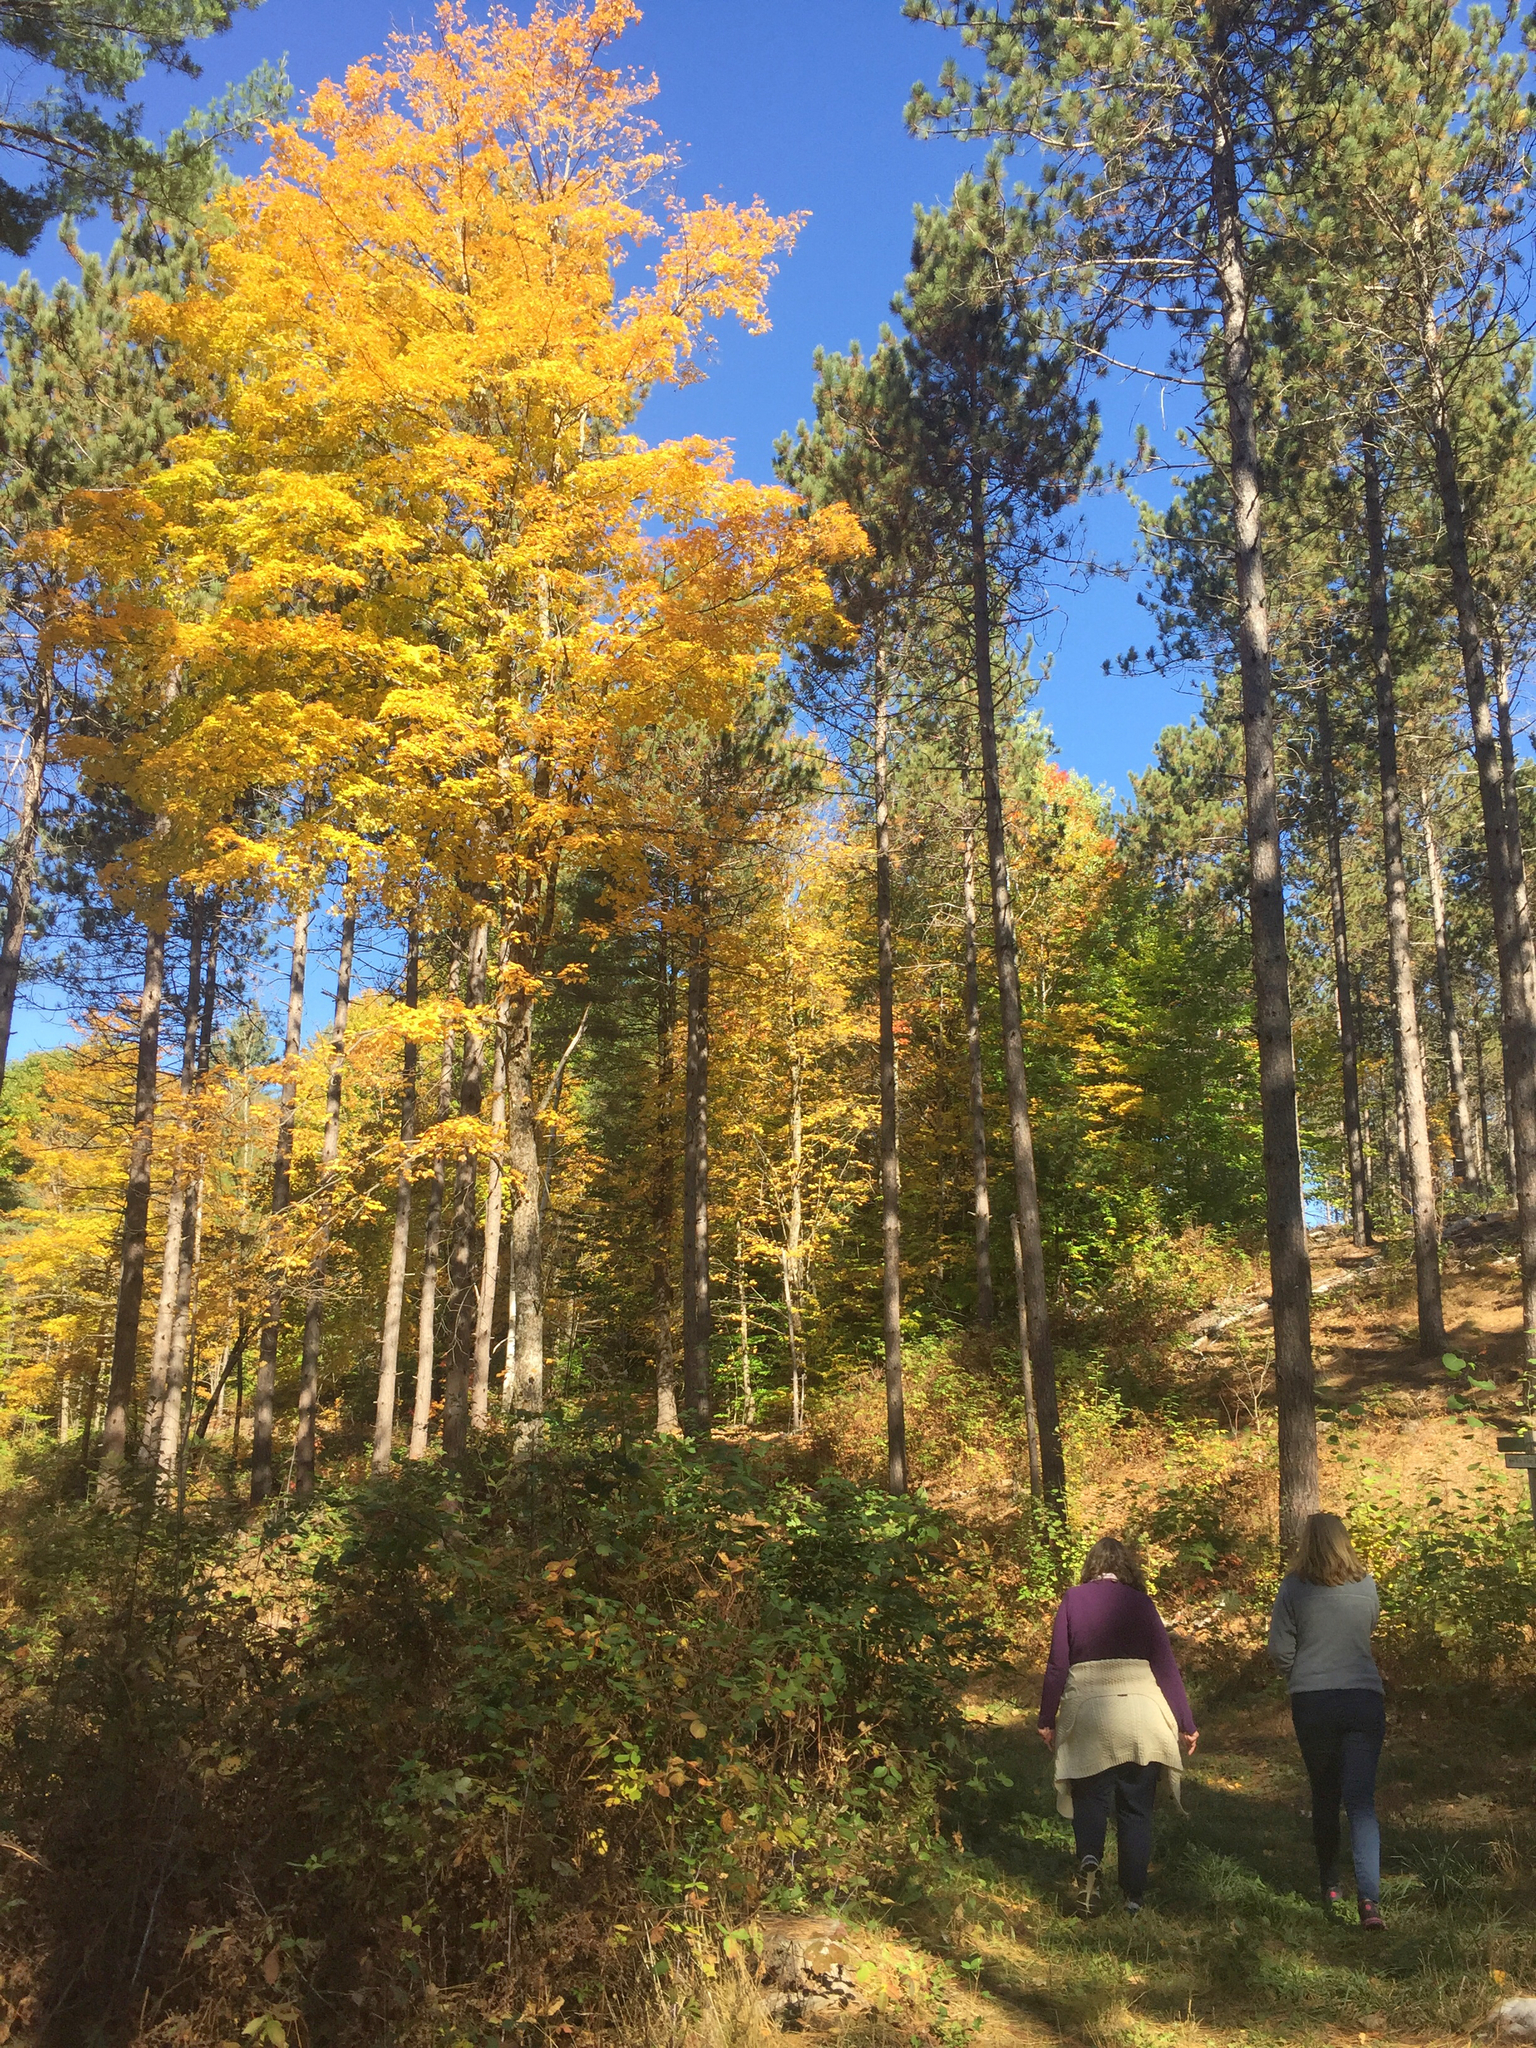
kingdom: Plantae
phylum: Tracheophyta
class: Magnoliopsida
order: Sapindales
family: Sapindaceae
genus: Acer
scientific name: Acer saccharum
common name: Sugar maple
